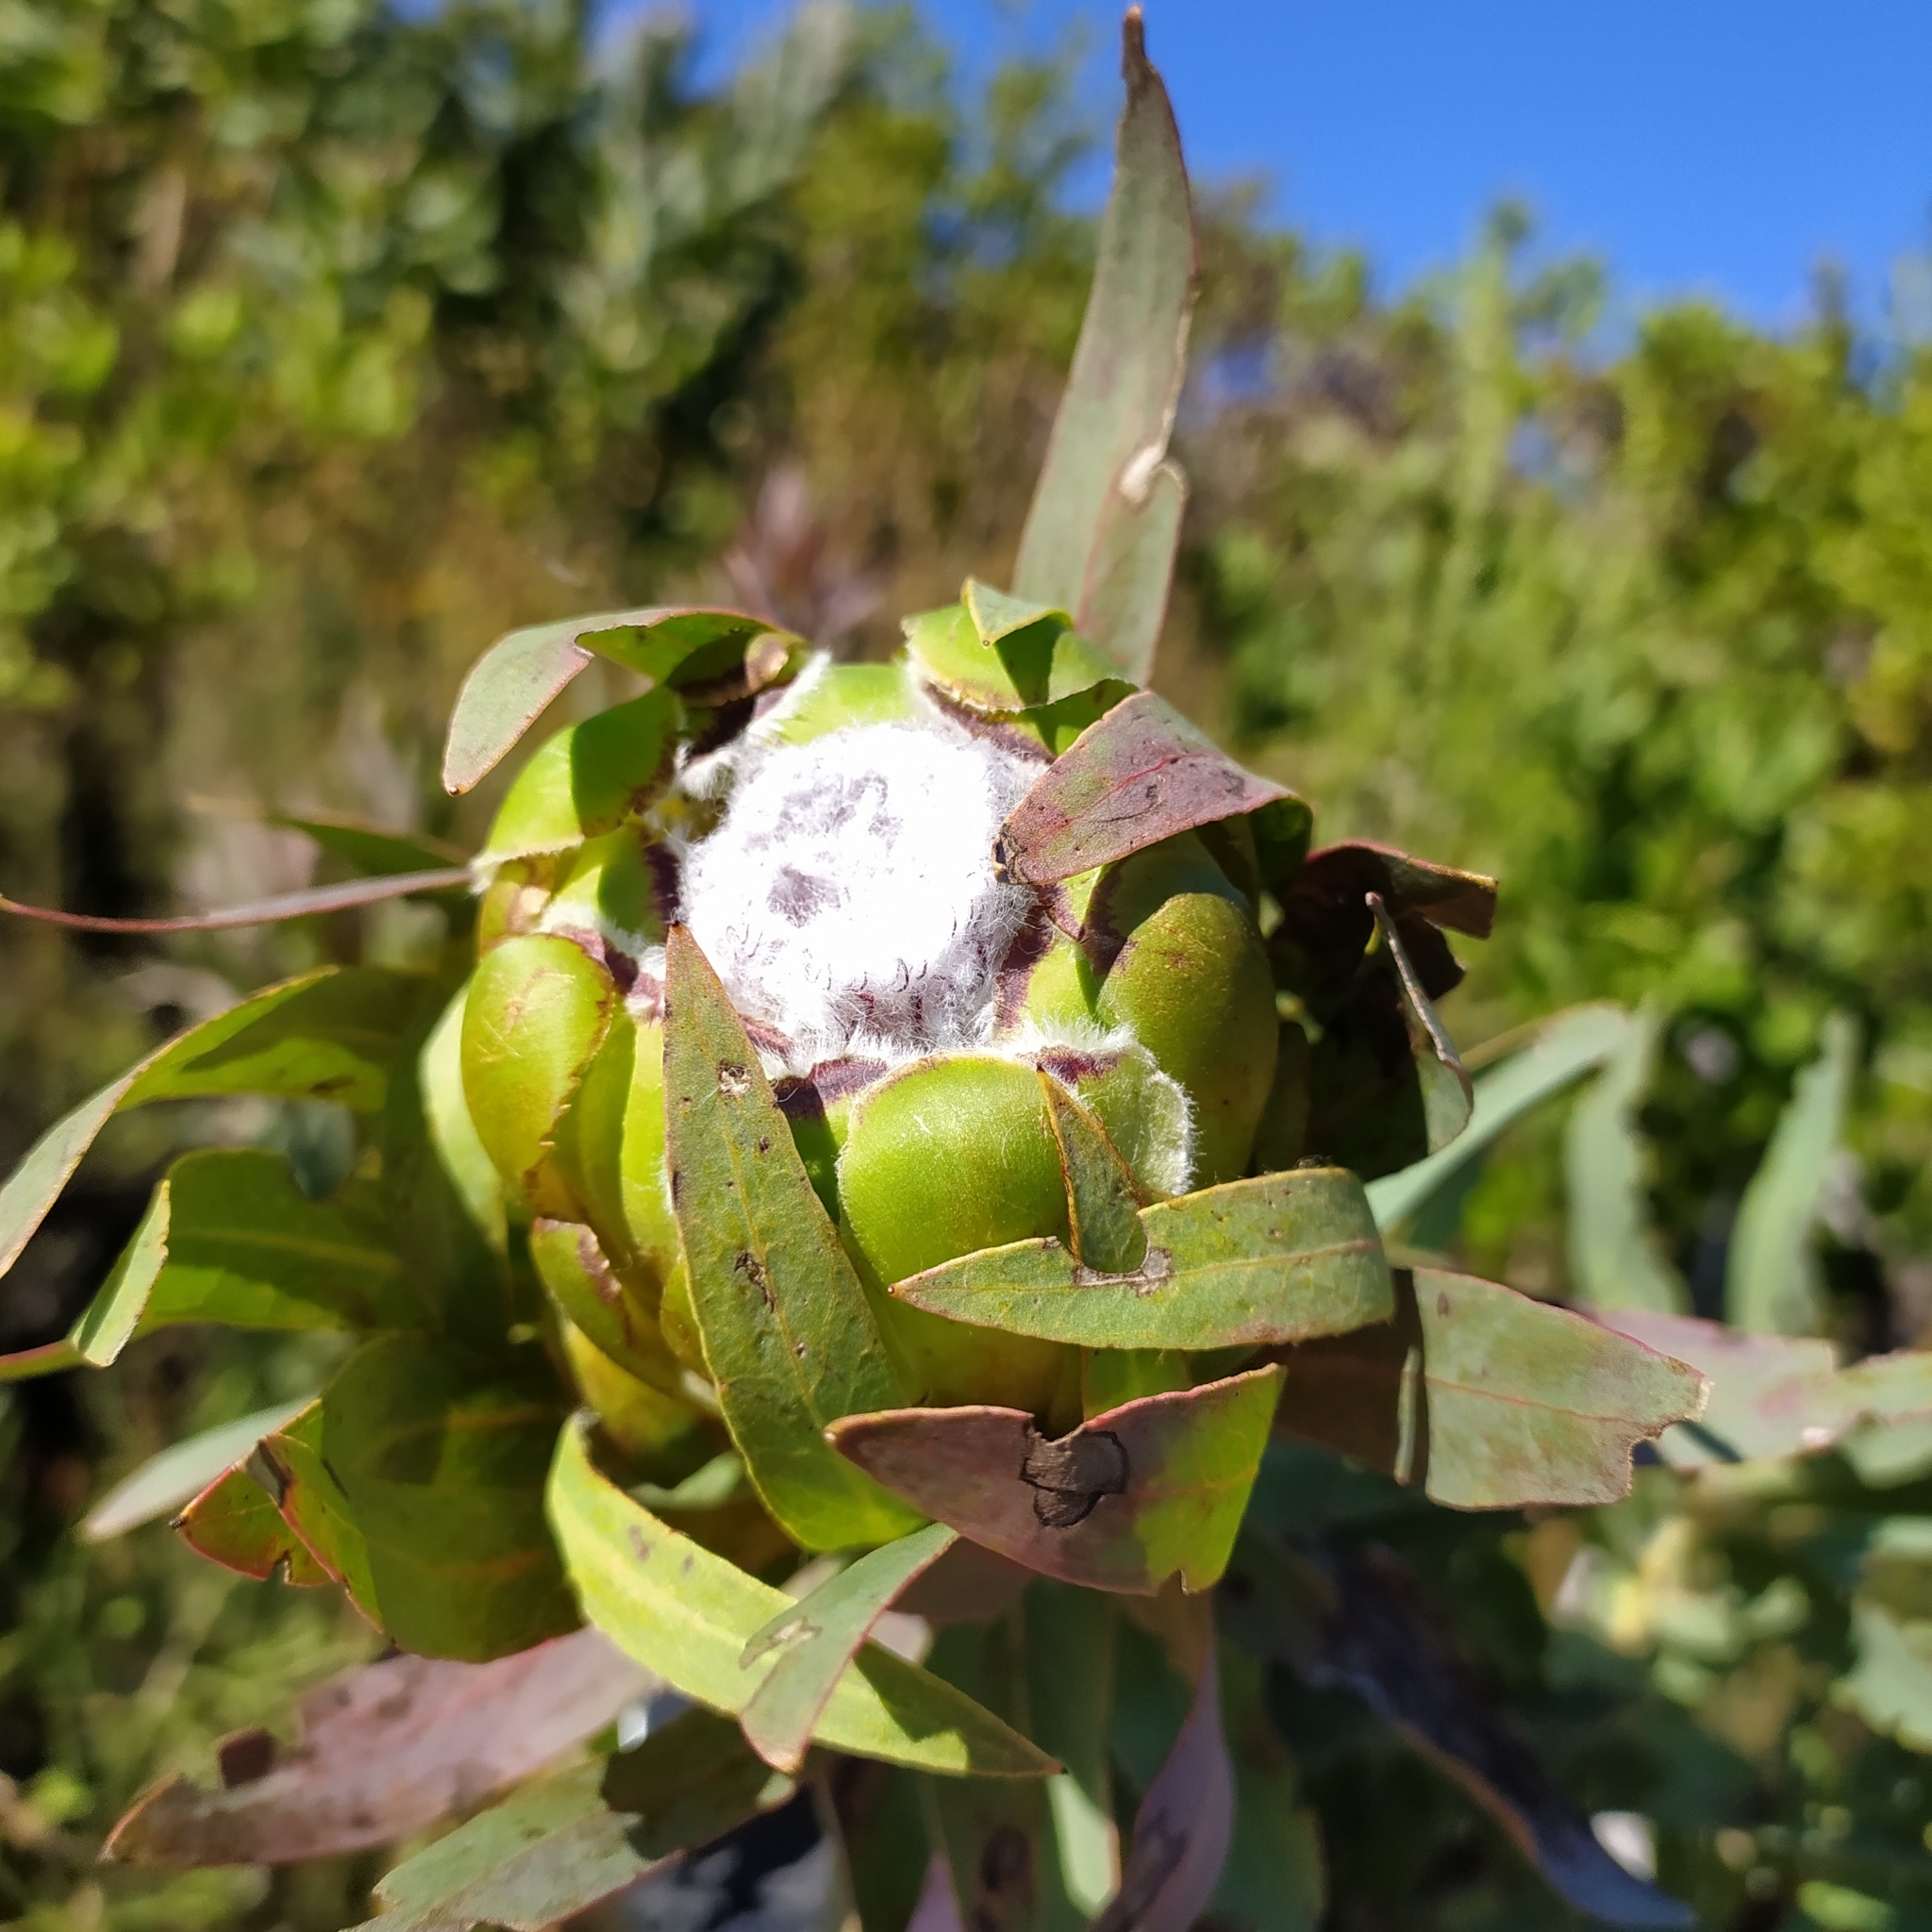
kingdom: Plantae
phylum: Tracheophyta
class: Magnoliopsida
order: Proteales
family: Proteaceae
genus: Protea
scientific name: Protea coronata
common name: Green sugarbush
